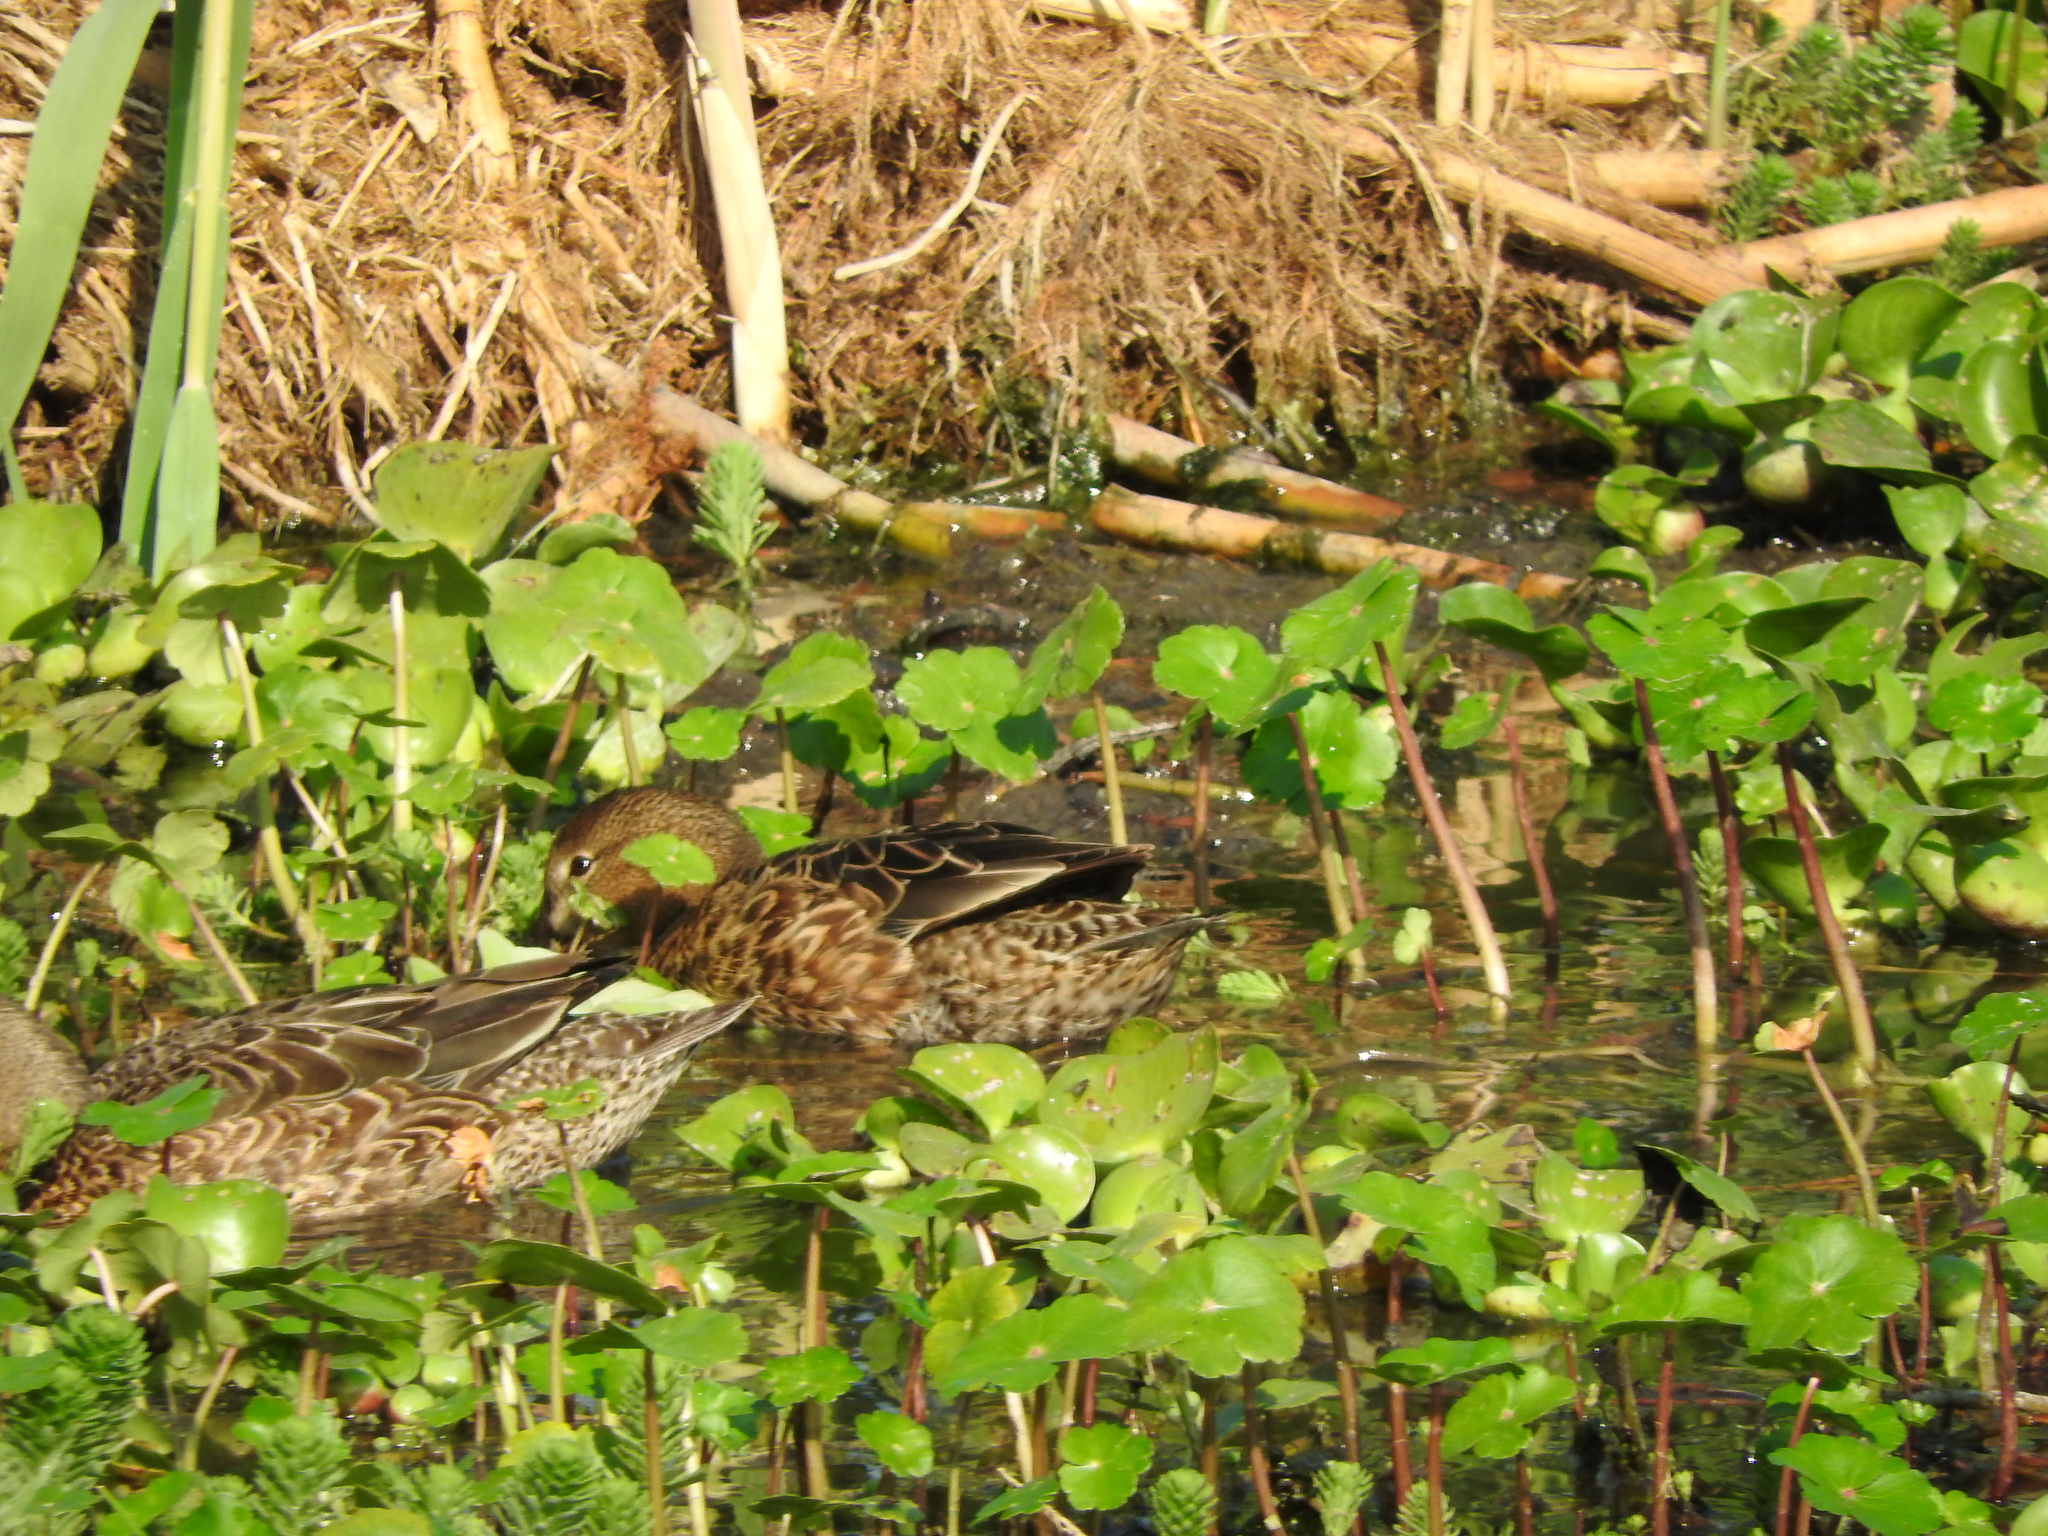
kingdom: Animalia
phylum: Chordata
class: Aves
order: Anseriformes
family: Anatidae
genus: Spatula
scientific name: Spatula discors
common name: Blue-winged teal
